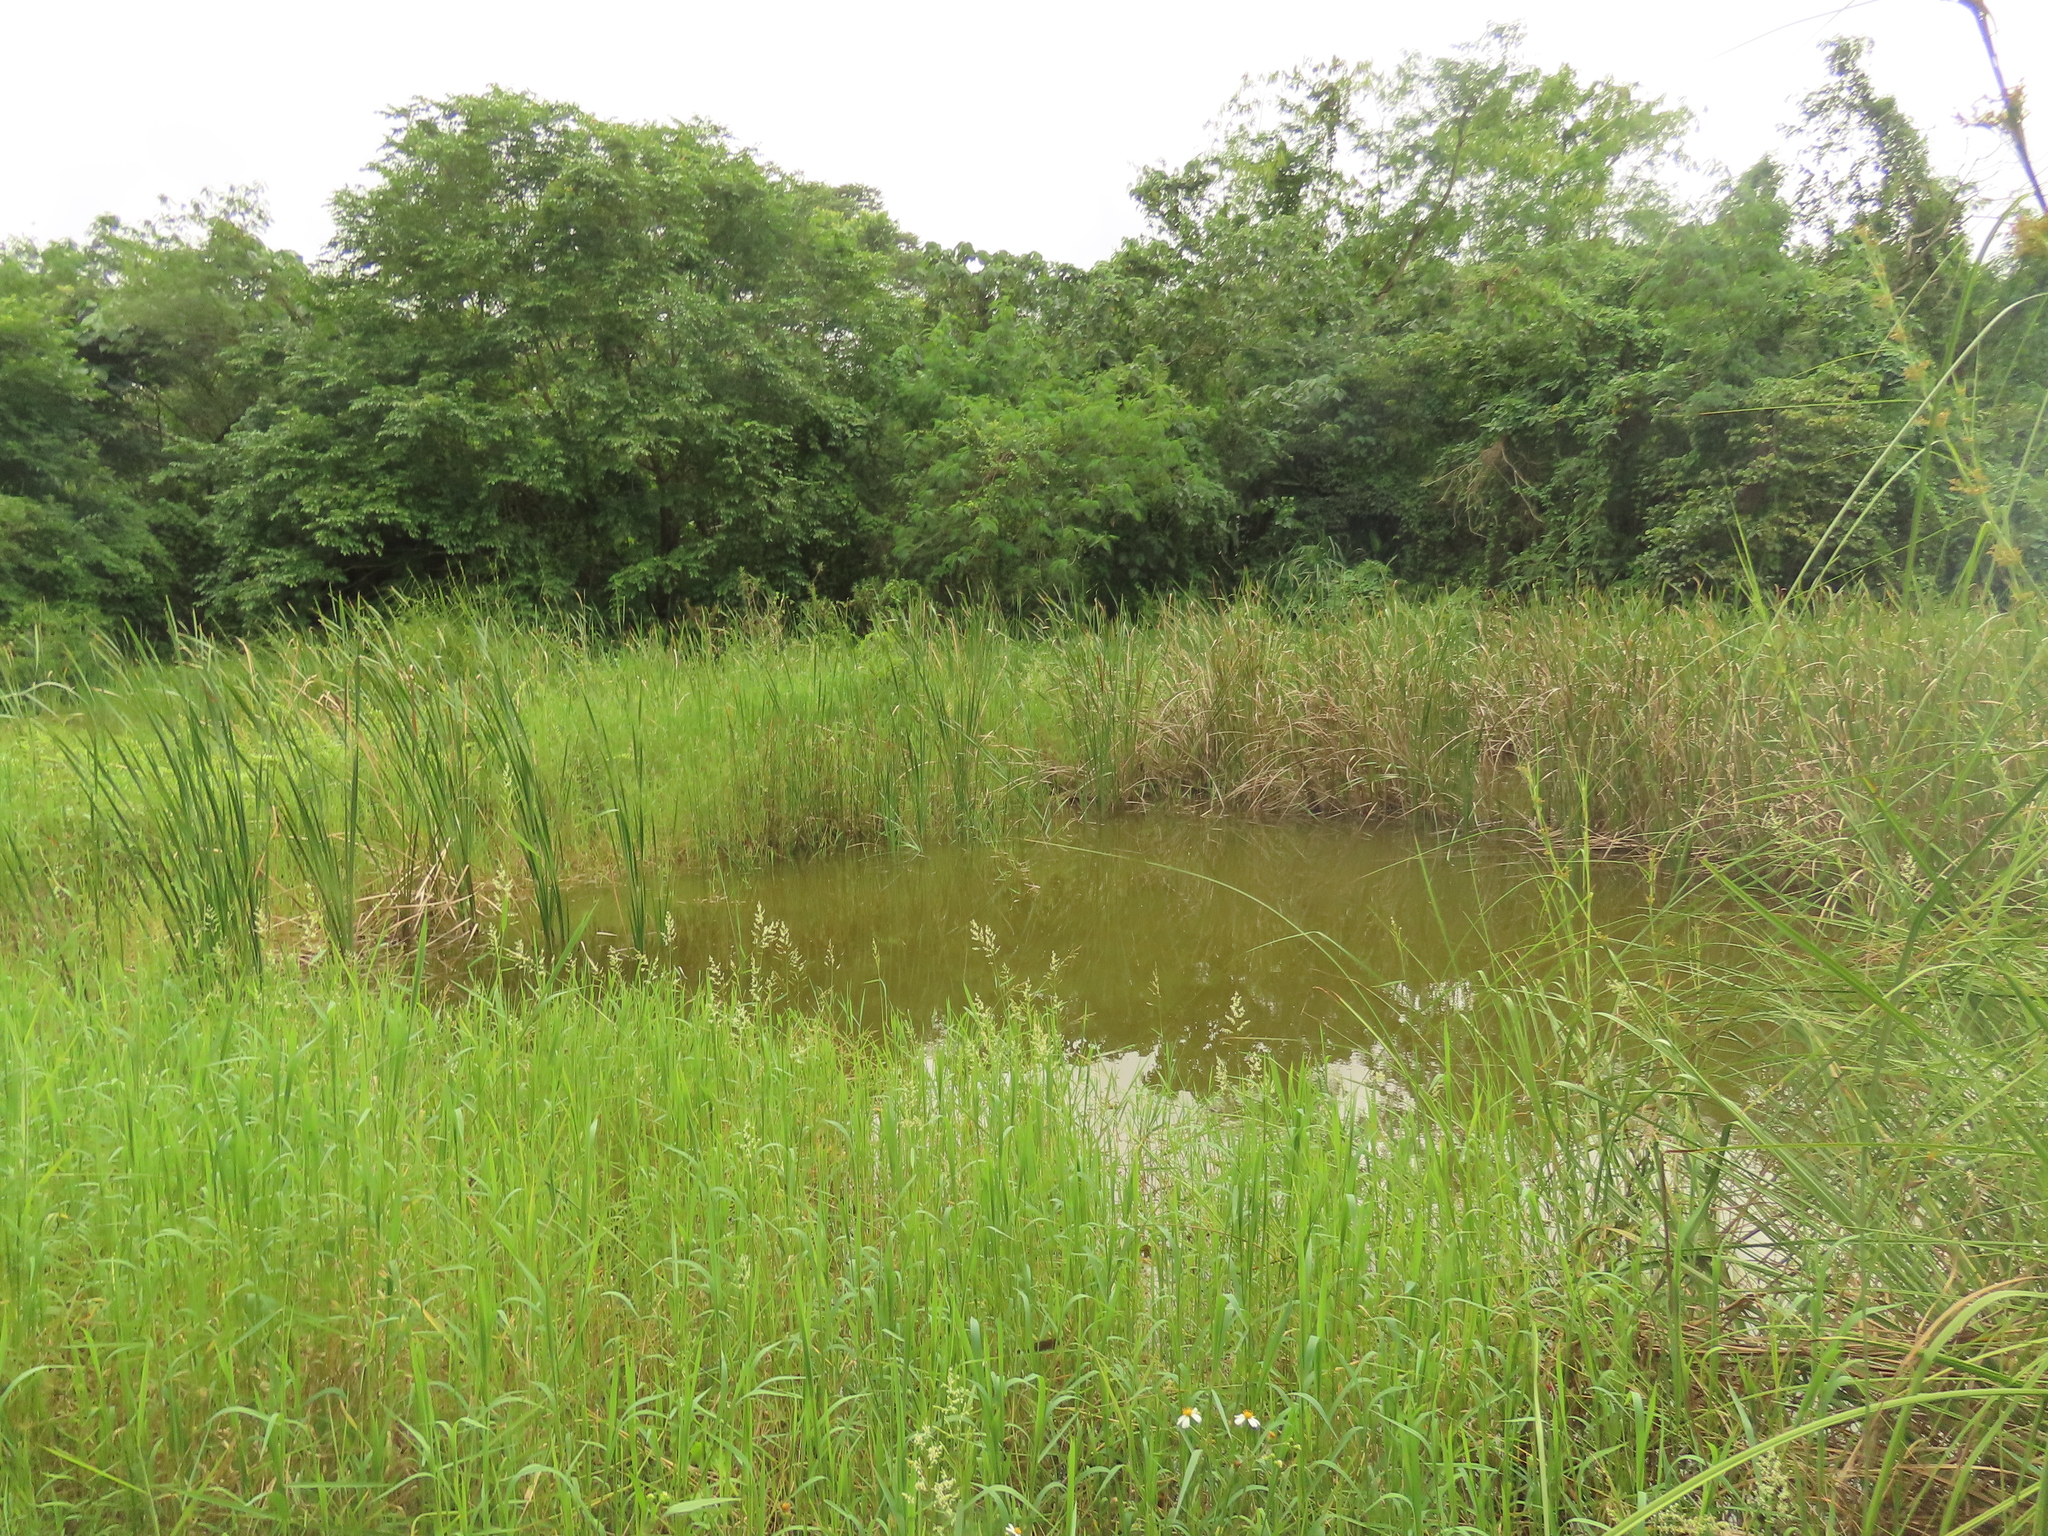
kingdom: Plantae
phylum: Tracheophyta
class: Liliopsida
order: Poales
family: Poaceae
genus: Leersia
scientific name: Leersia hexandra
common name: Southern cut grass
